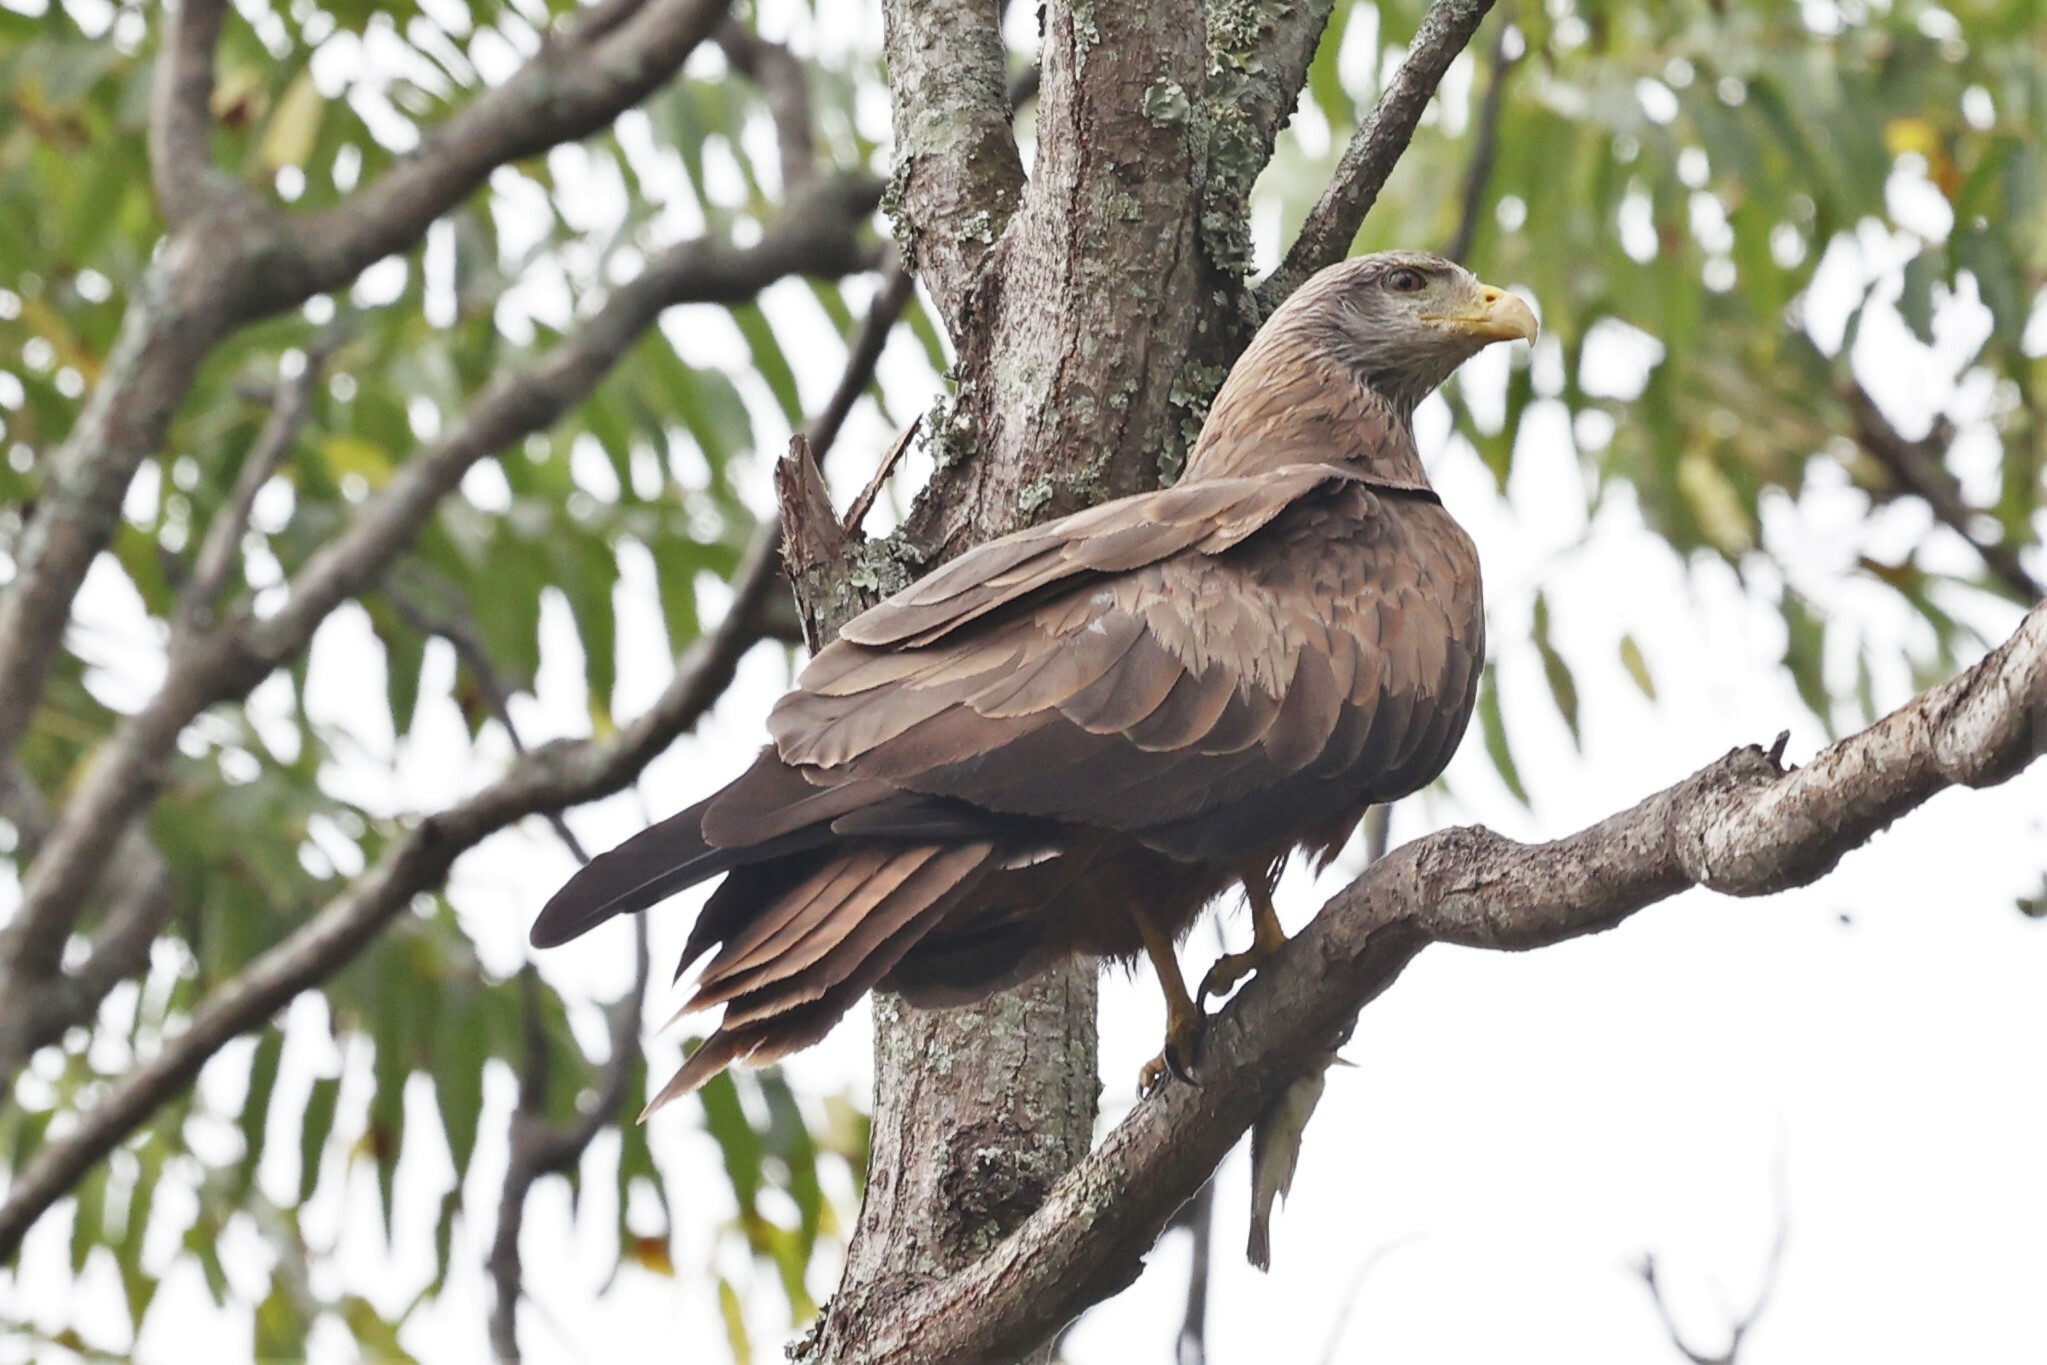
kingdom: Animalia
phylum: Chordata
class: Aves
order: Accipitriformes
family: Accipitridae
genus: Milvus
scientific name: Milvus migrans
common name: Black kite
